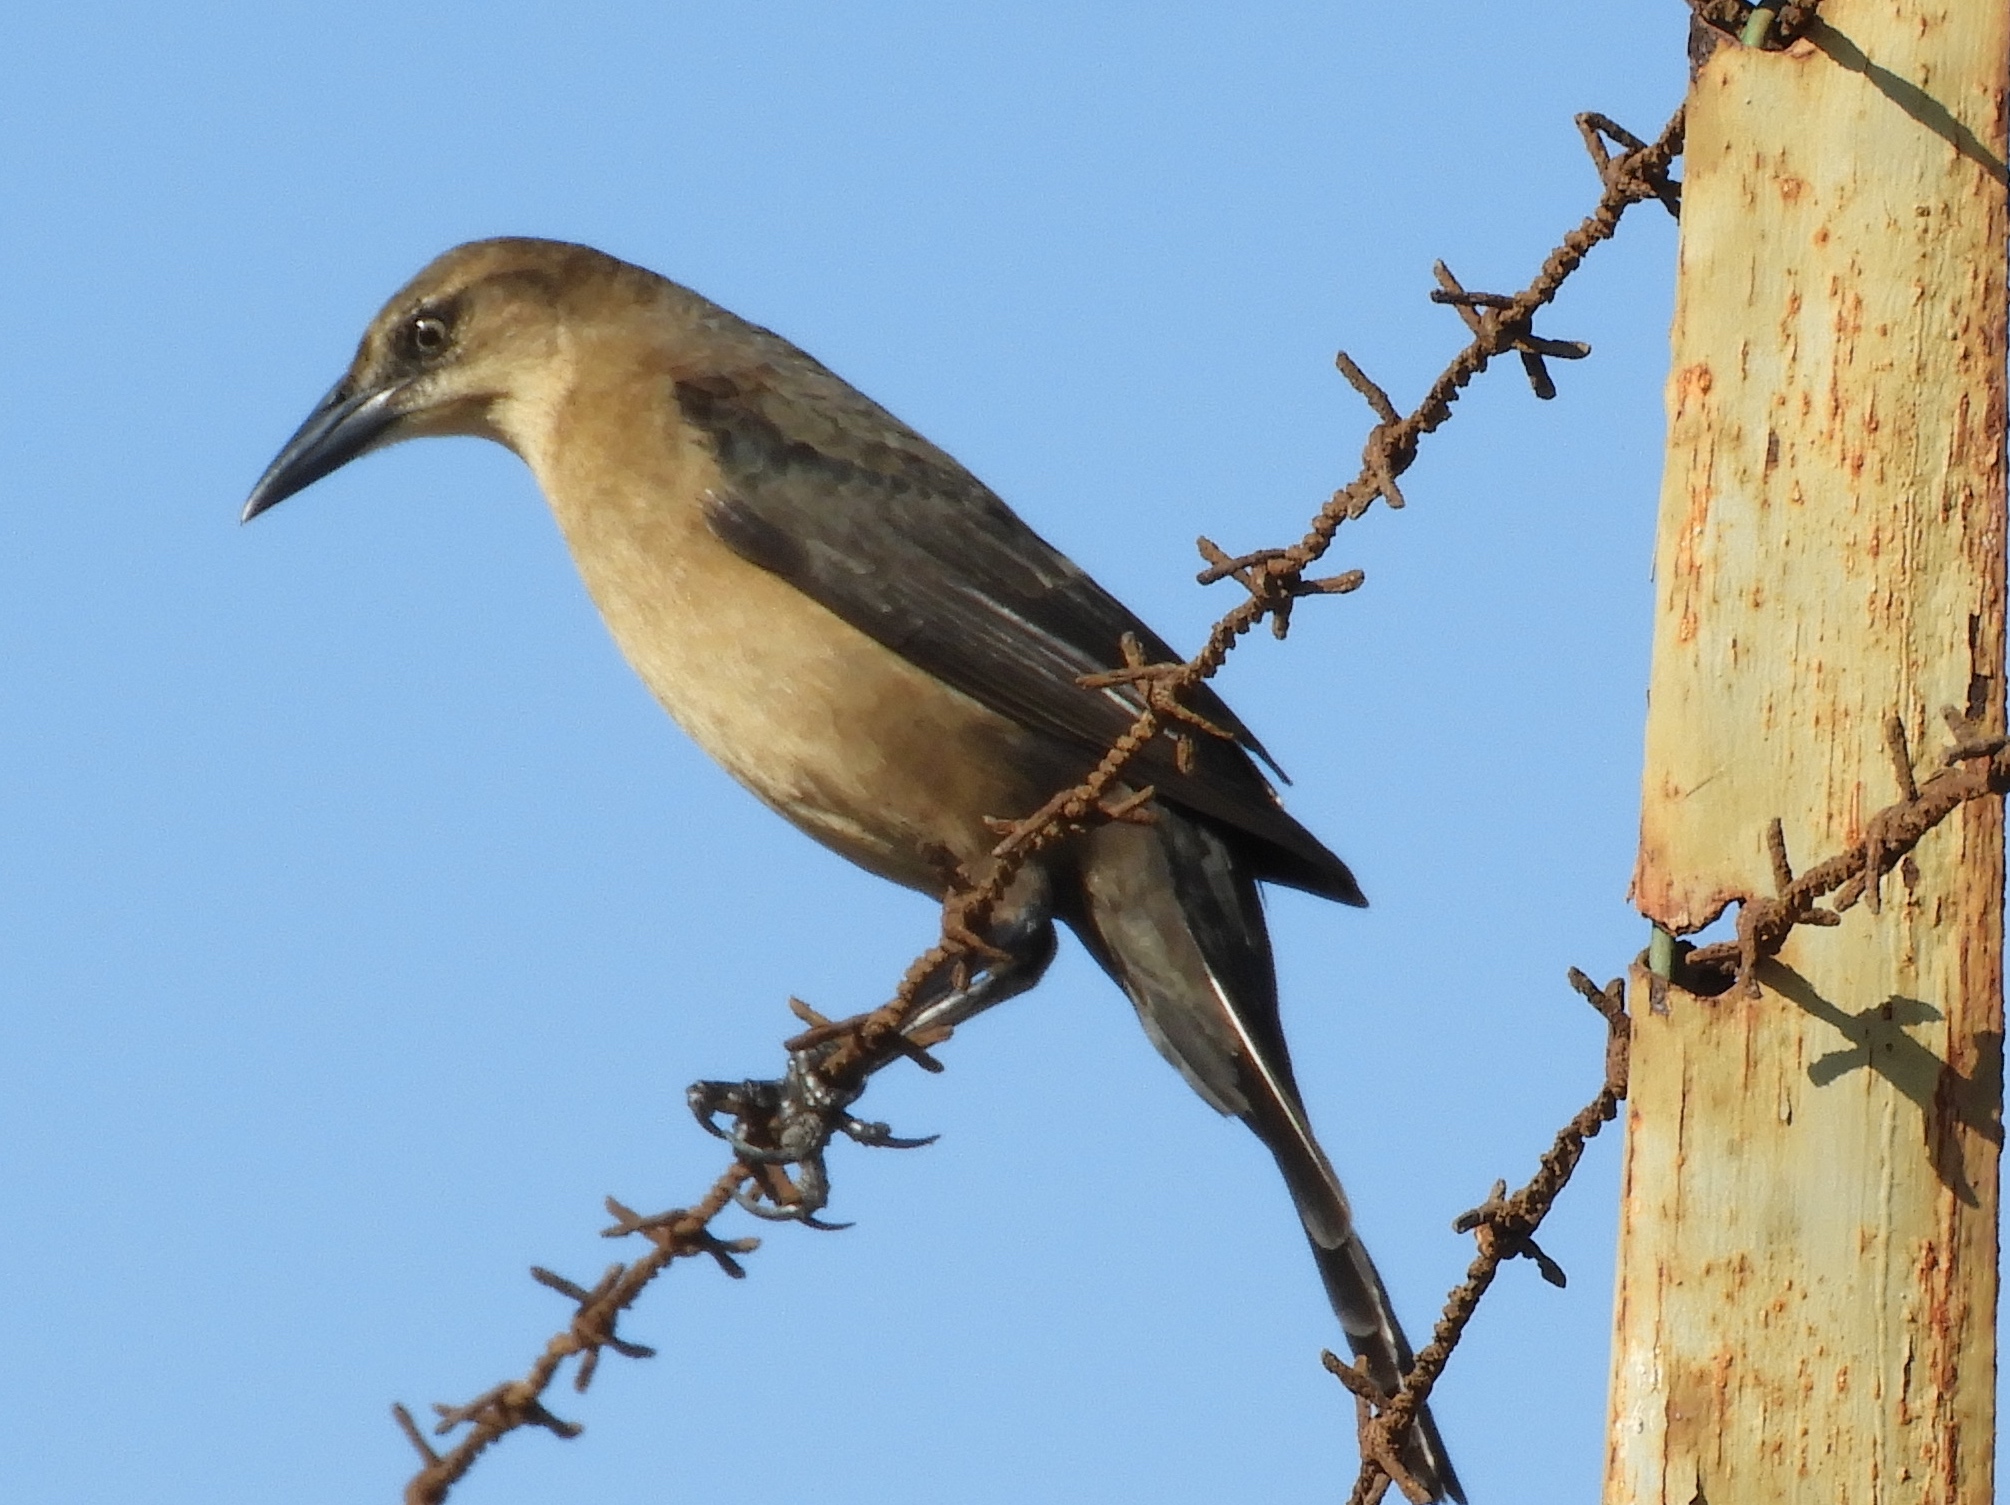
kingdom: Animalia
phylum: Chordata
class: Aves
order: Passeriformes
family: Icteridae
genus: Quiscalus
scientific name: Quiscalus mexicanus
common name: Great-tailed grackle
